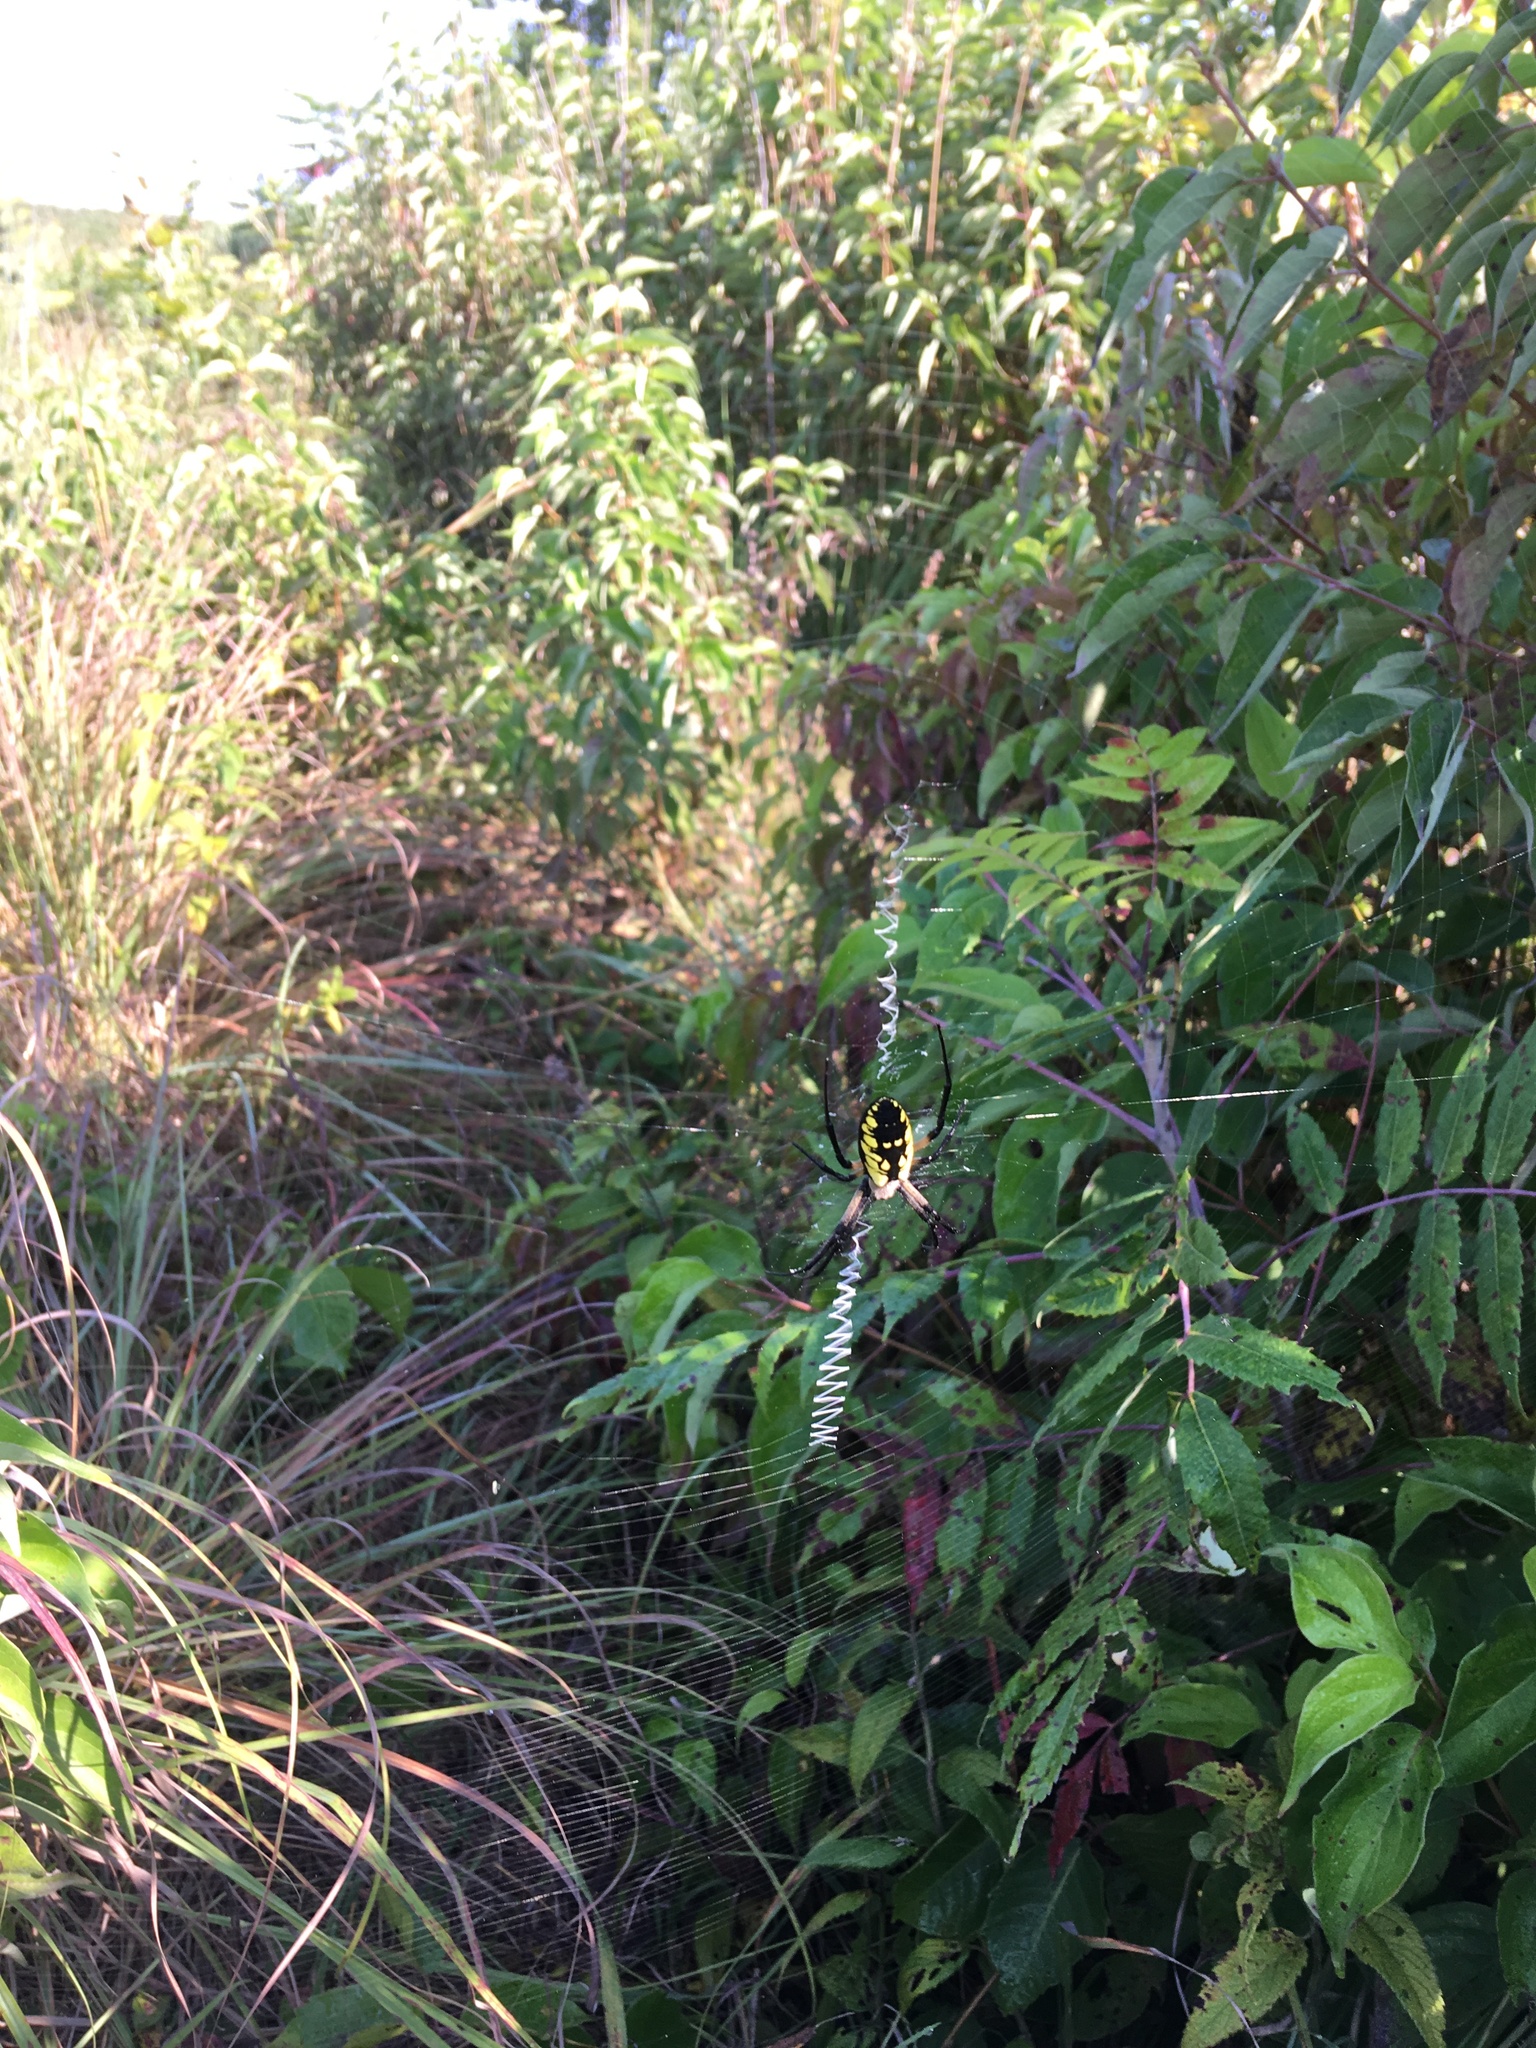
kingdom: Animalia
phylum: Arthropoda
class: Arachnida
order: Araneae
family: Araneidae
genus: Argiope
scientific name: Argiope aurantia
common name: Orb weavers
